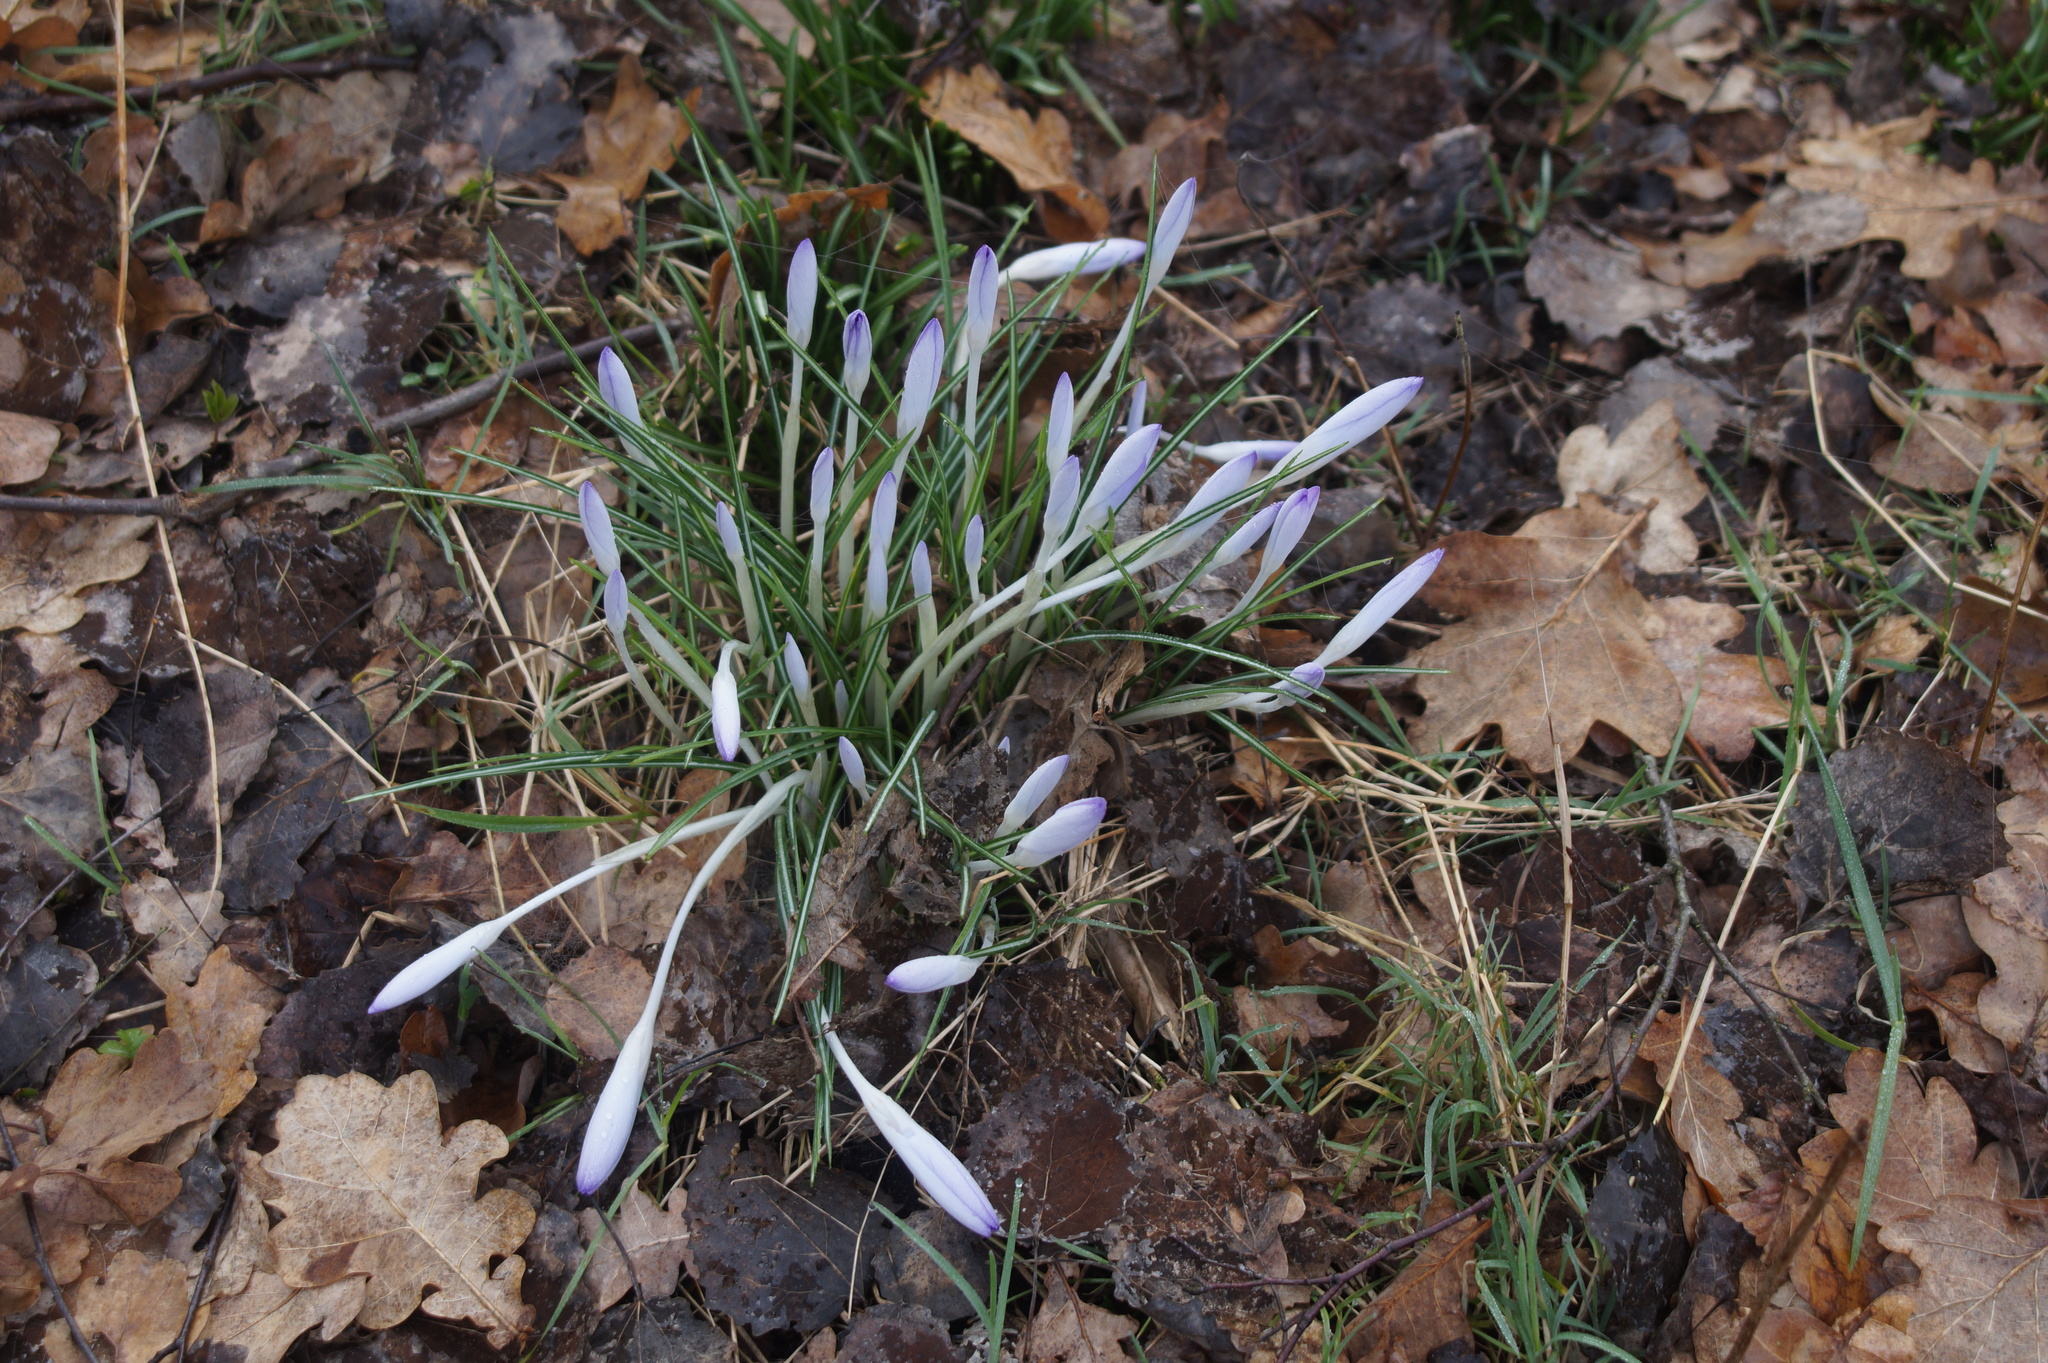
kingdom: Plantae
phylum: Tracheophyta
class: Liliopsida
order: Asparagales
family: Iridaceae
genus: Crocus
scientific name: Crocus tommasinianus
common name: Early crocus
